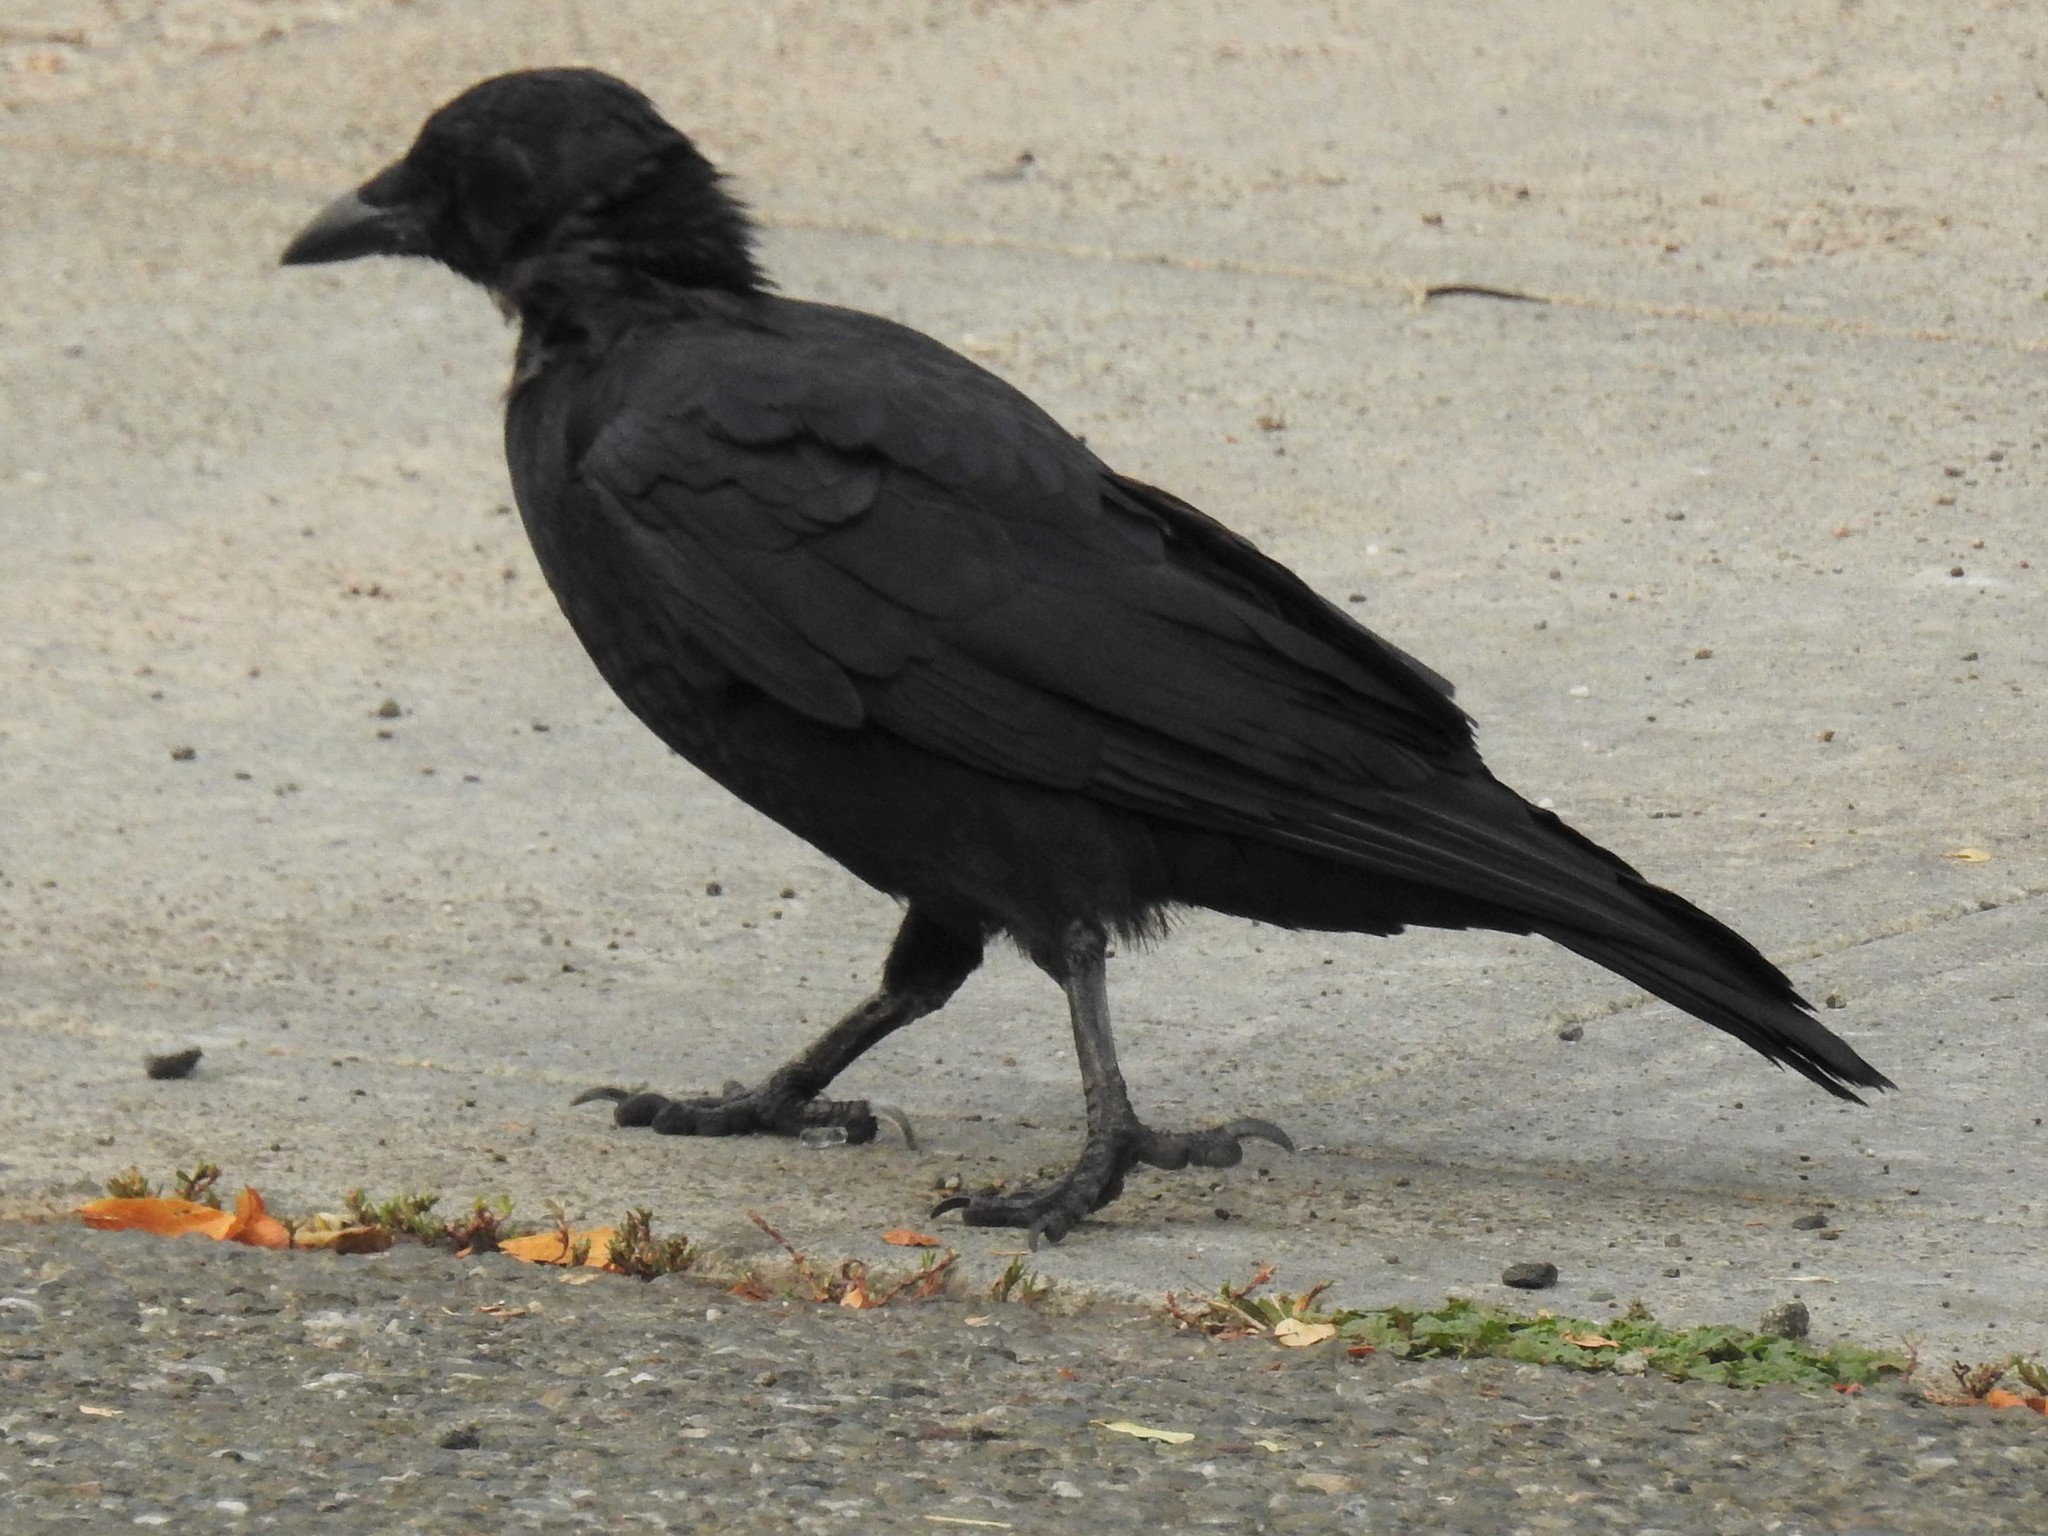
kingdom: Animalia
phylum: Chordata
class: Aves
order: Passeriformes
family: Corvidae
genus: Corvus
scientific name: Corvus brachyrhynchos
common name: American crow
